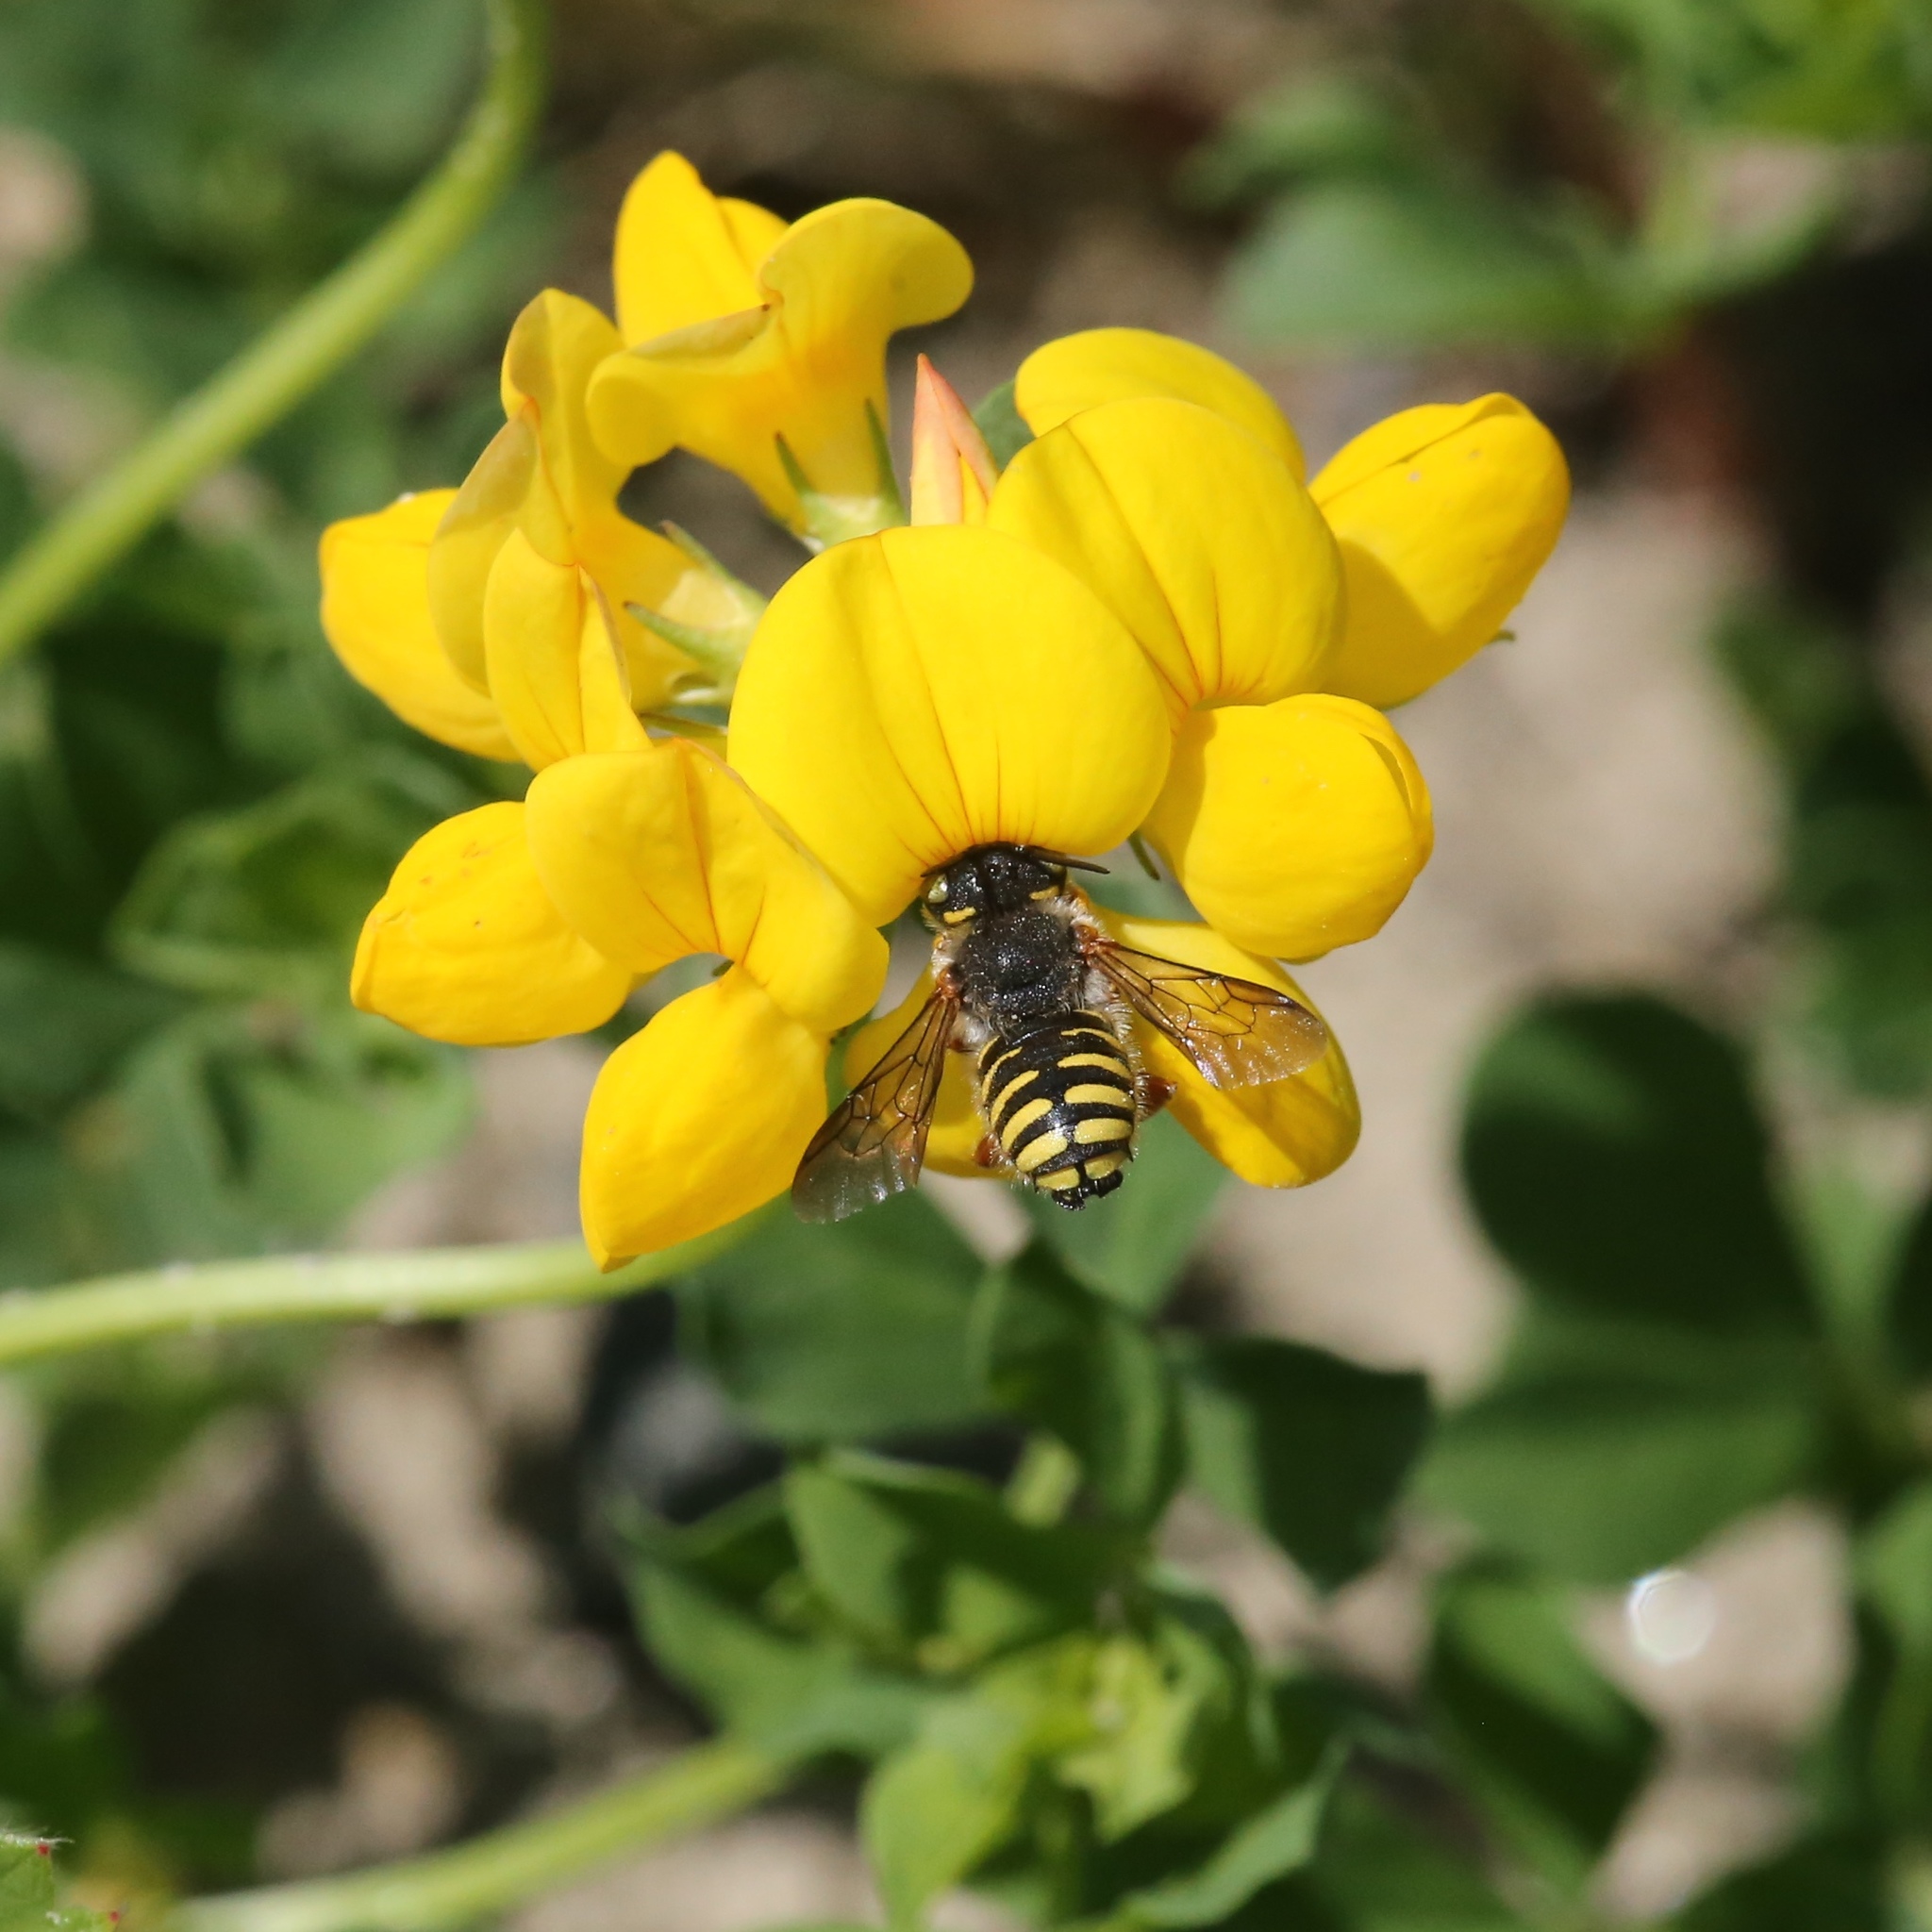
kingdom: Plantae
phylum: Tracheophyta
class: Magnoliopsida
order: Fabales
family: Fabaceae
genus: Lotus
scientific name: Lotus corniculatus
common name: Common bird's-foot-trefoil
